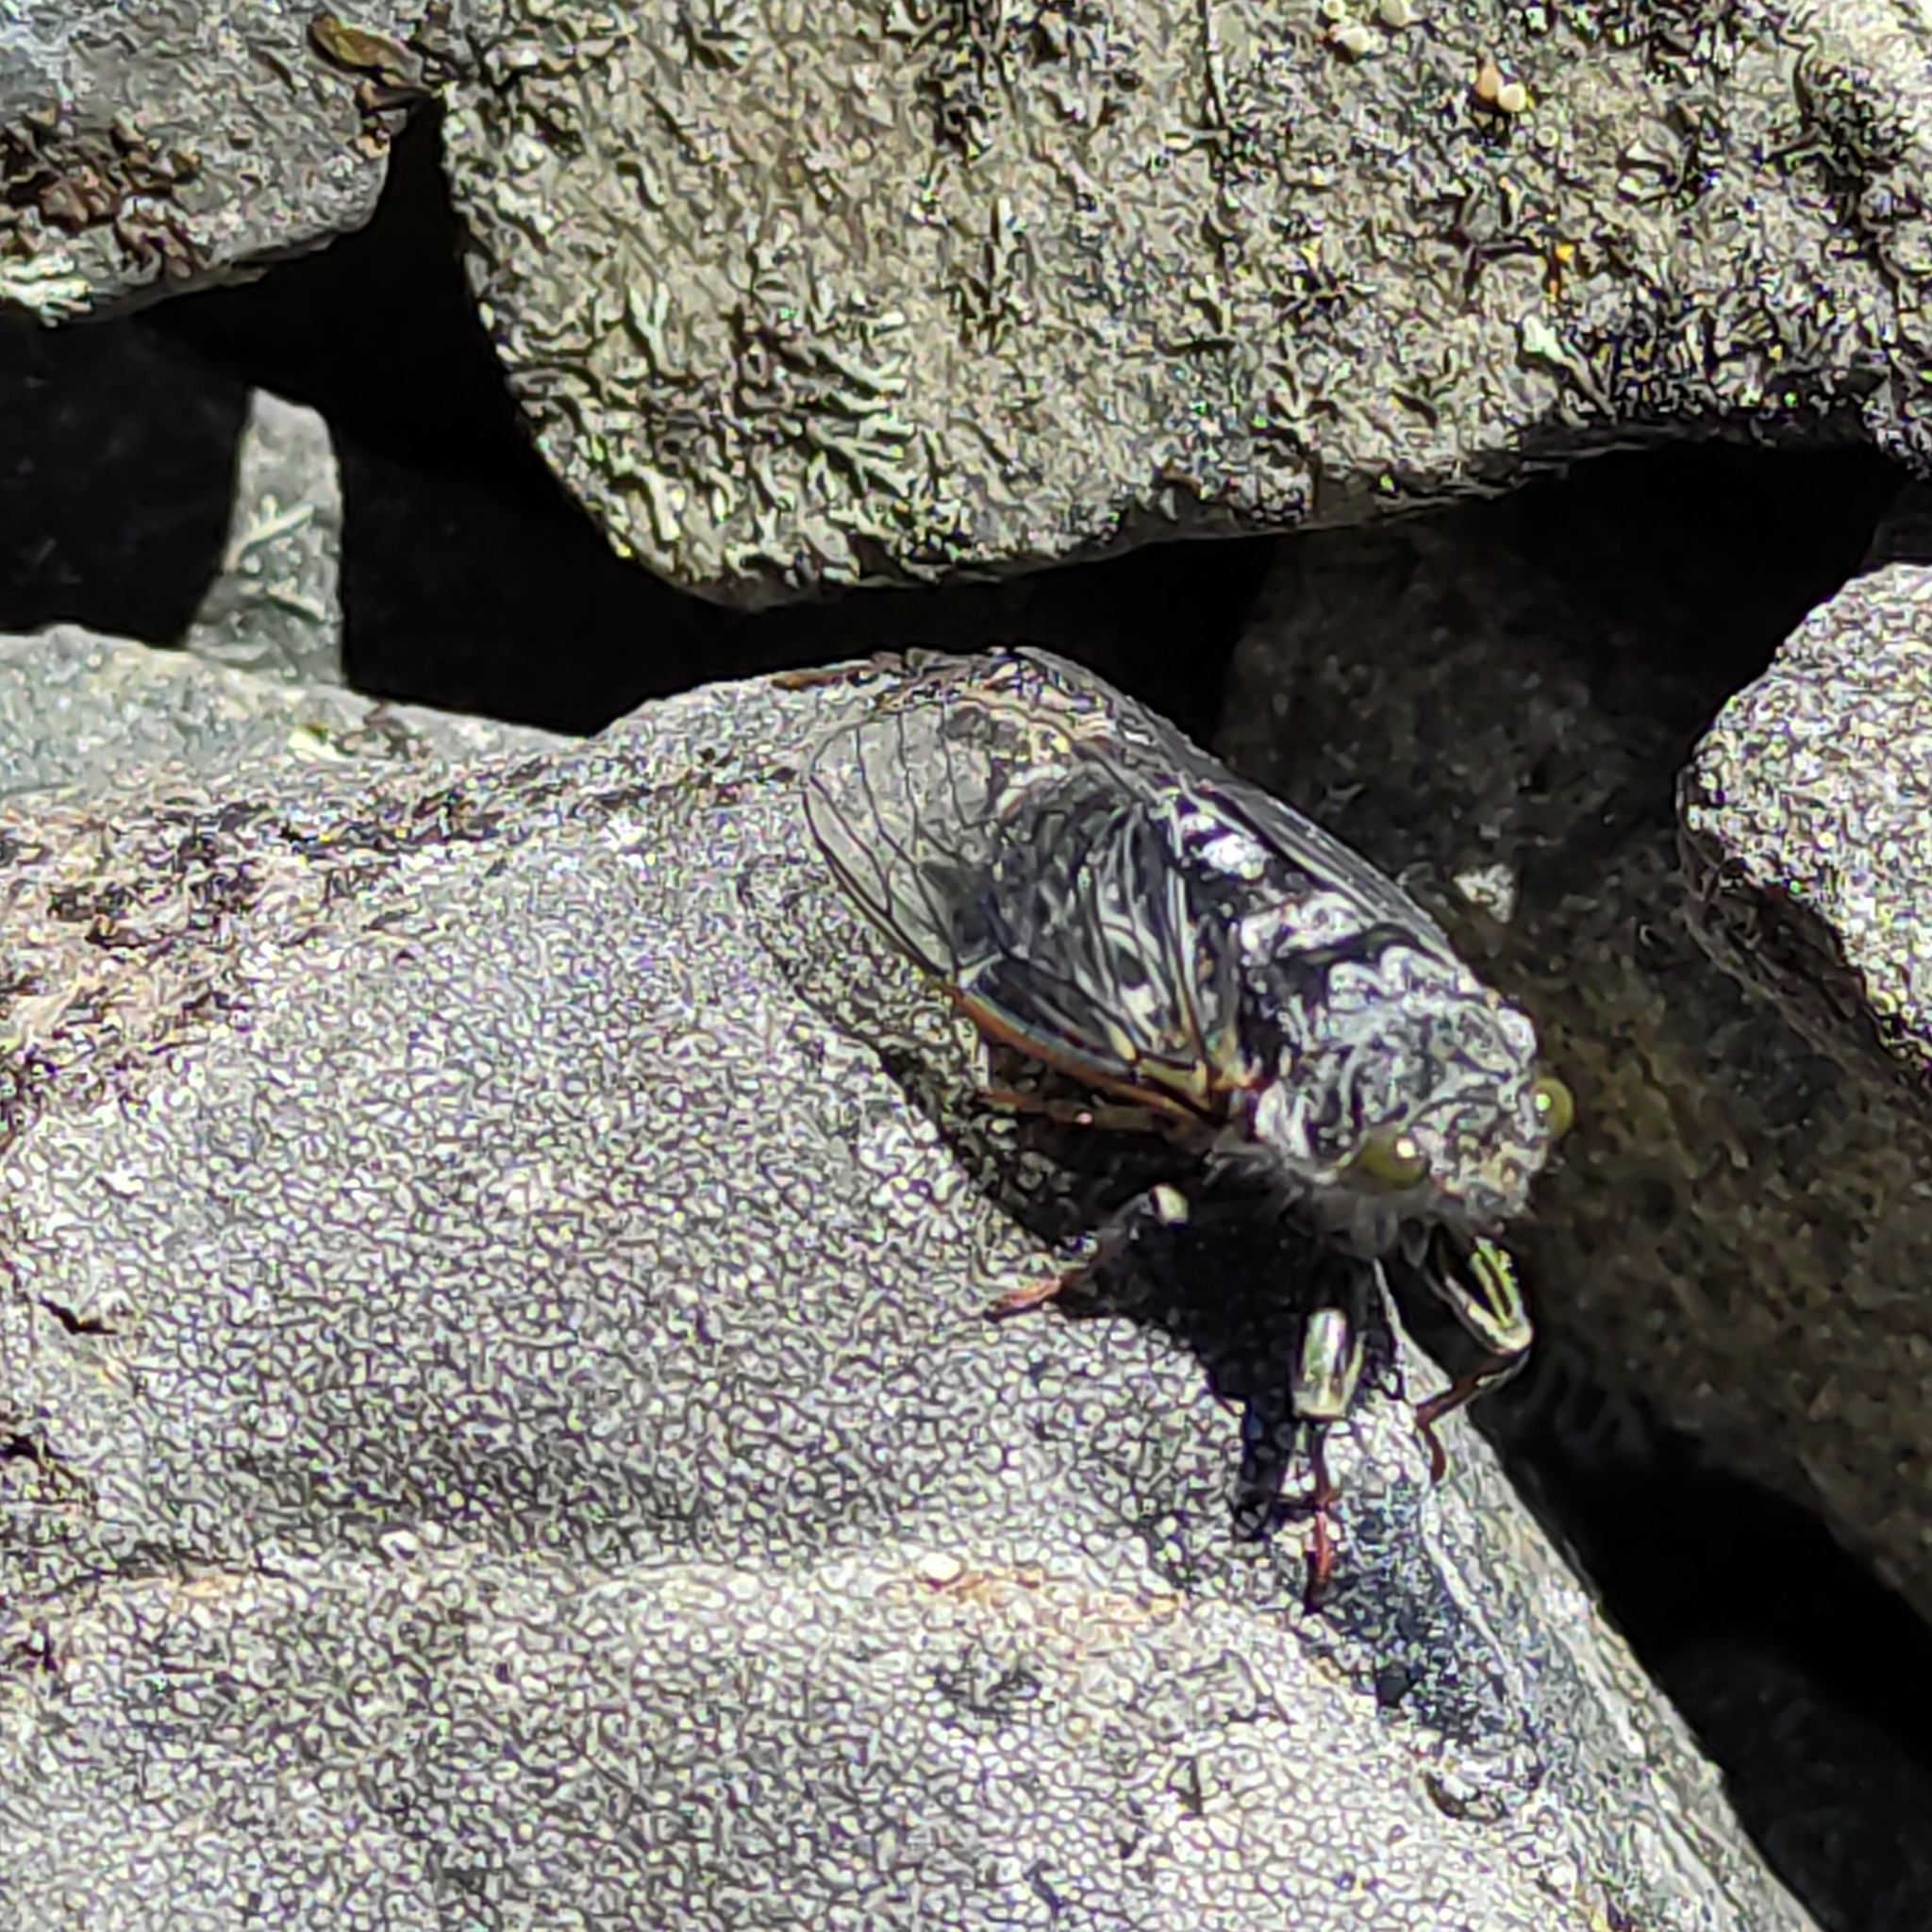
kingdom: Animalia
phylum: Arthropoda
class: Insecta
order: Hemiptera
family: Cicadidae
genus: Maoricicada
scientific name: Maoricicada campbelli
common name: Campbell's cicada
